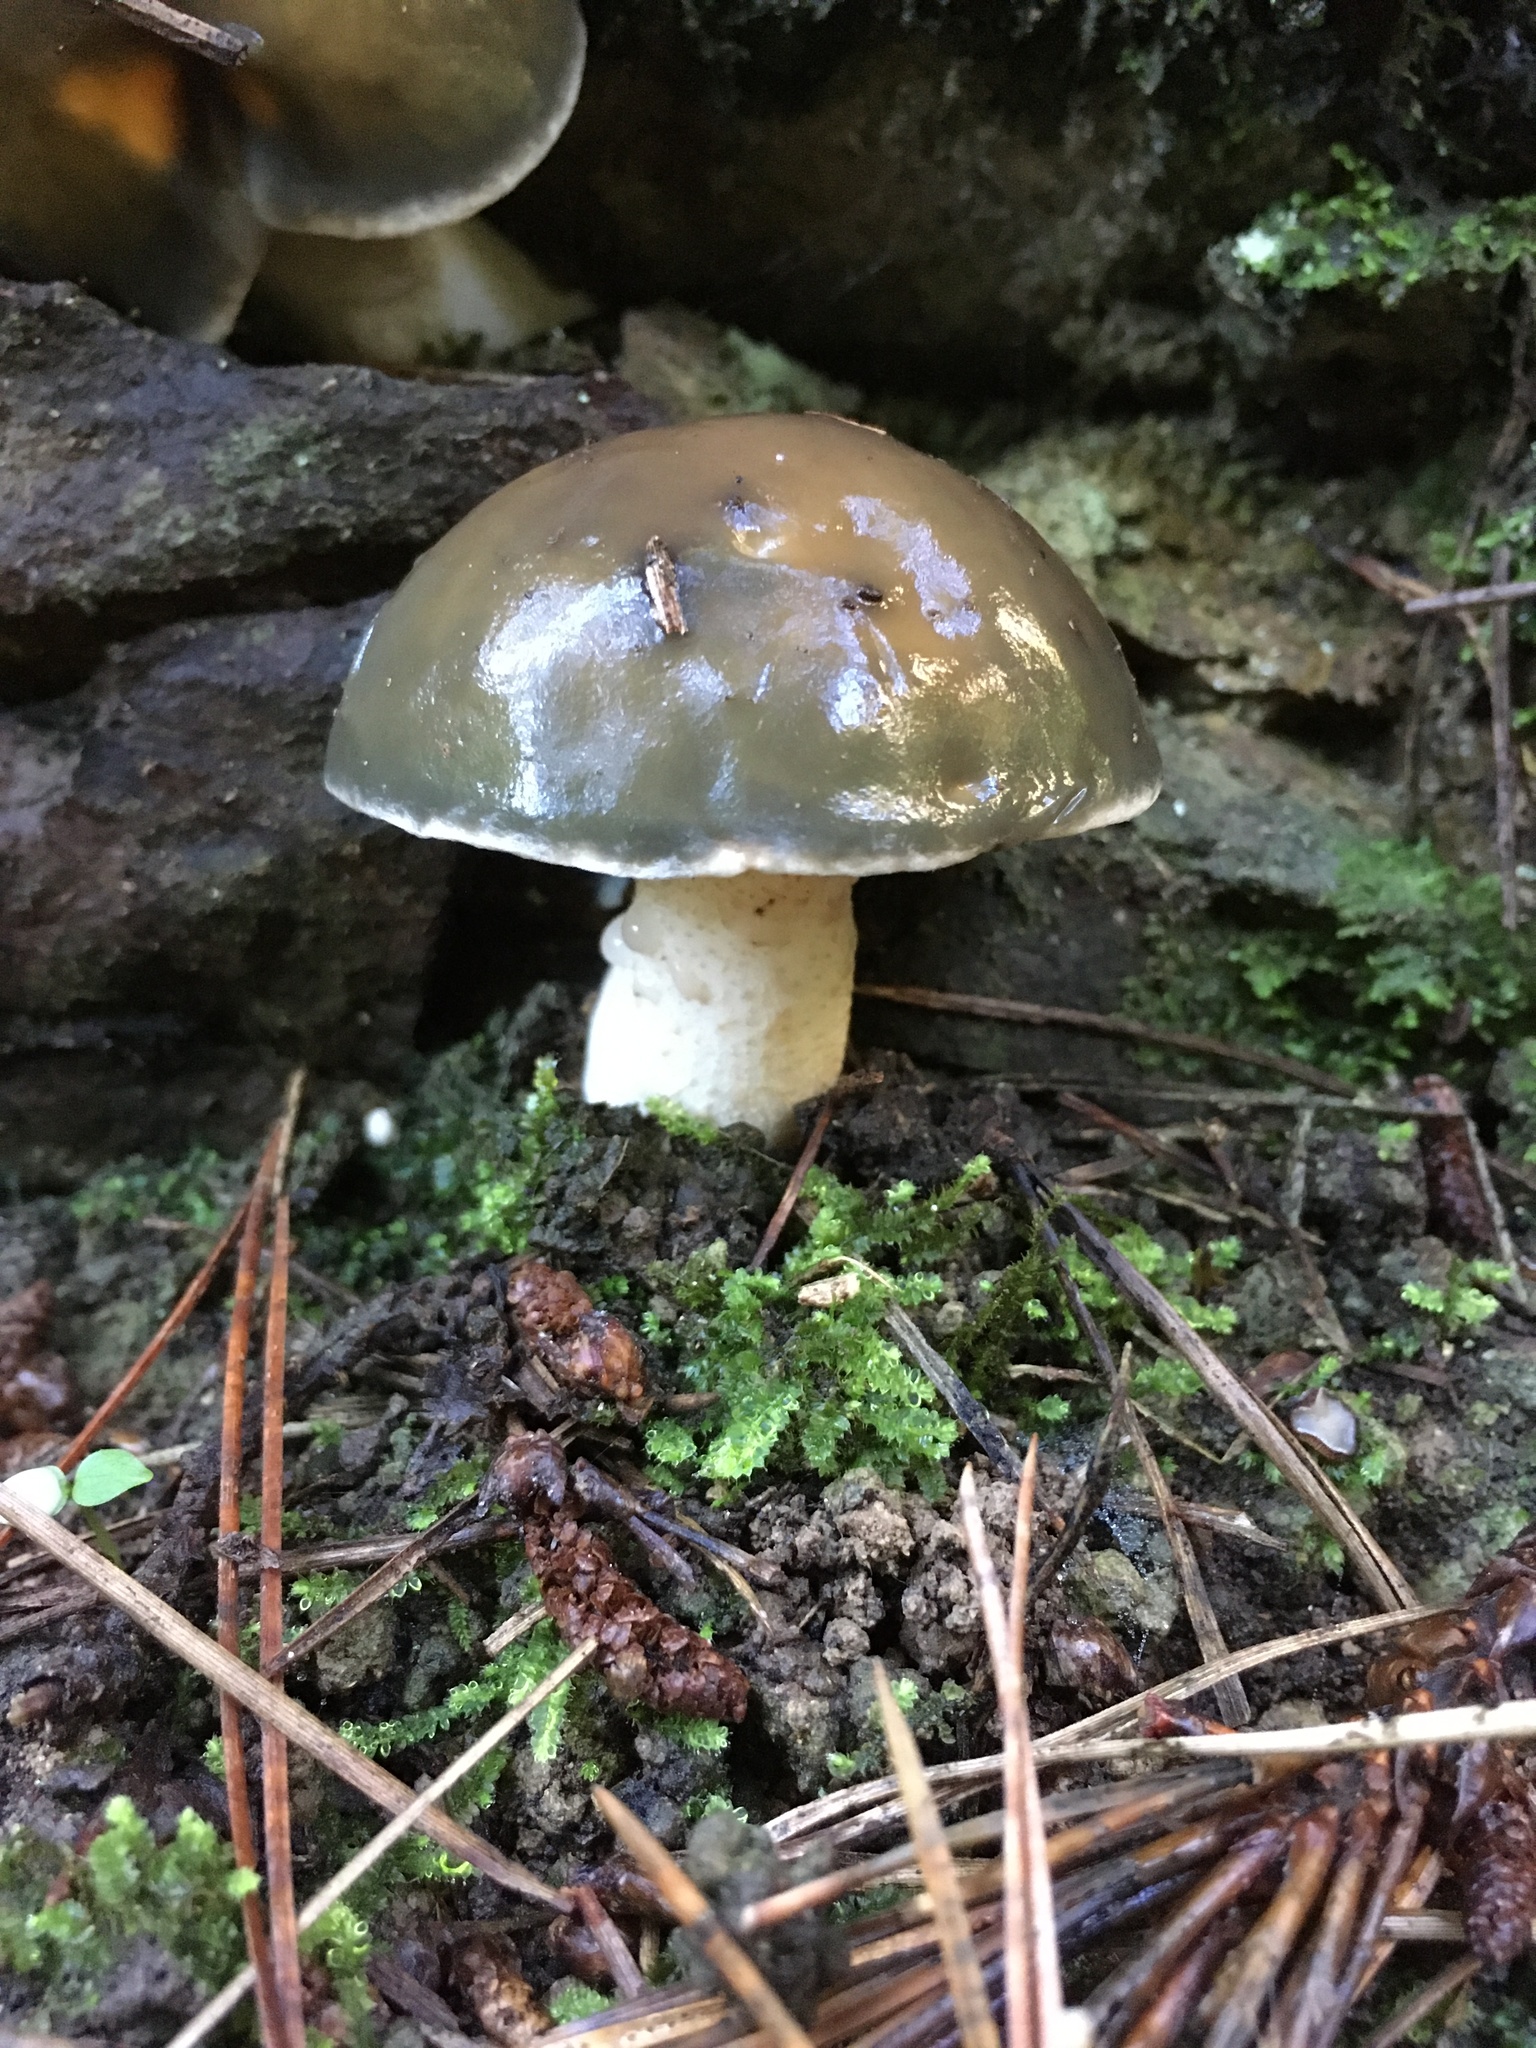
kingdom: Fungi
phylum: Basidiomycota
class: Agaricomycetes
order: Boletales
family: Suillaceae
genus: Suillus
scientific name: Suillus pungens
